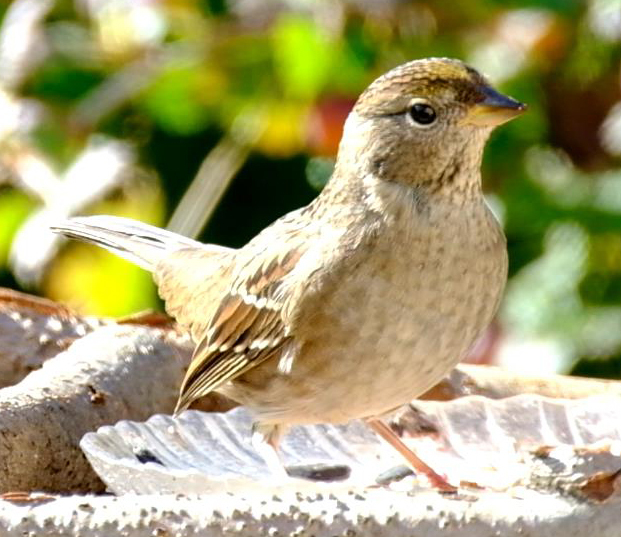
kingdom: Animalia
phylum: Chordata
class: Aves
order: Passeriformes
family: Passerellidae
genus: Zonotrichia
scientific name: Zonotrichia atricapilla
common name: Golden-crowned sparrow
